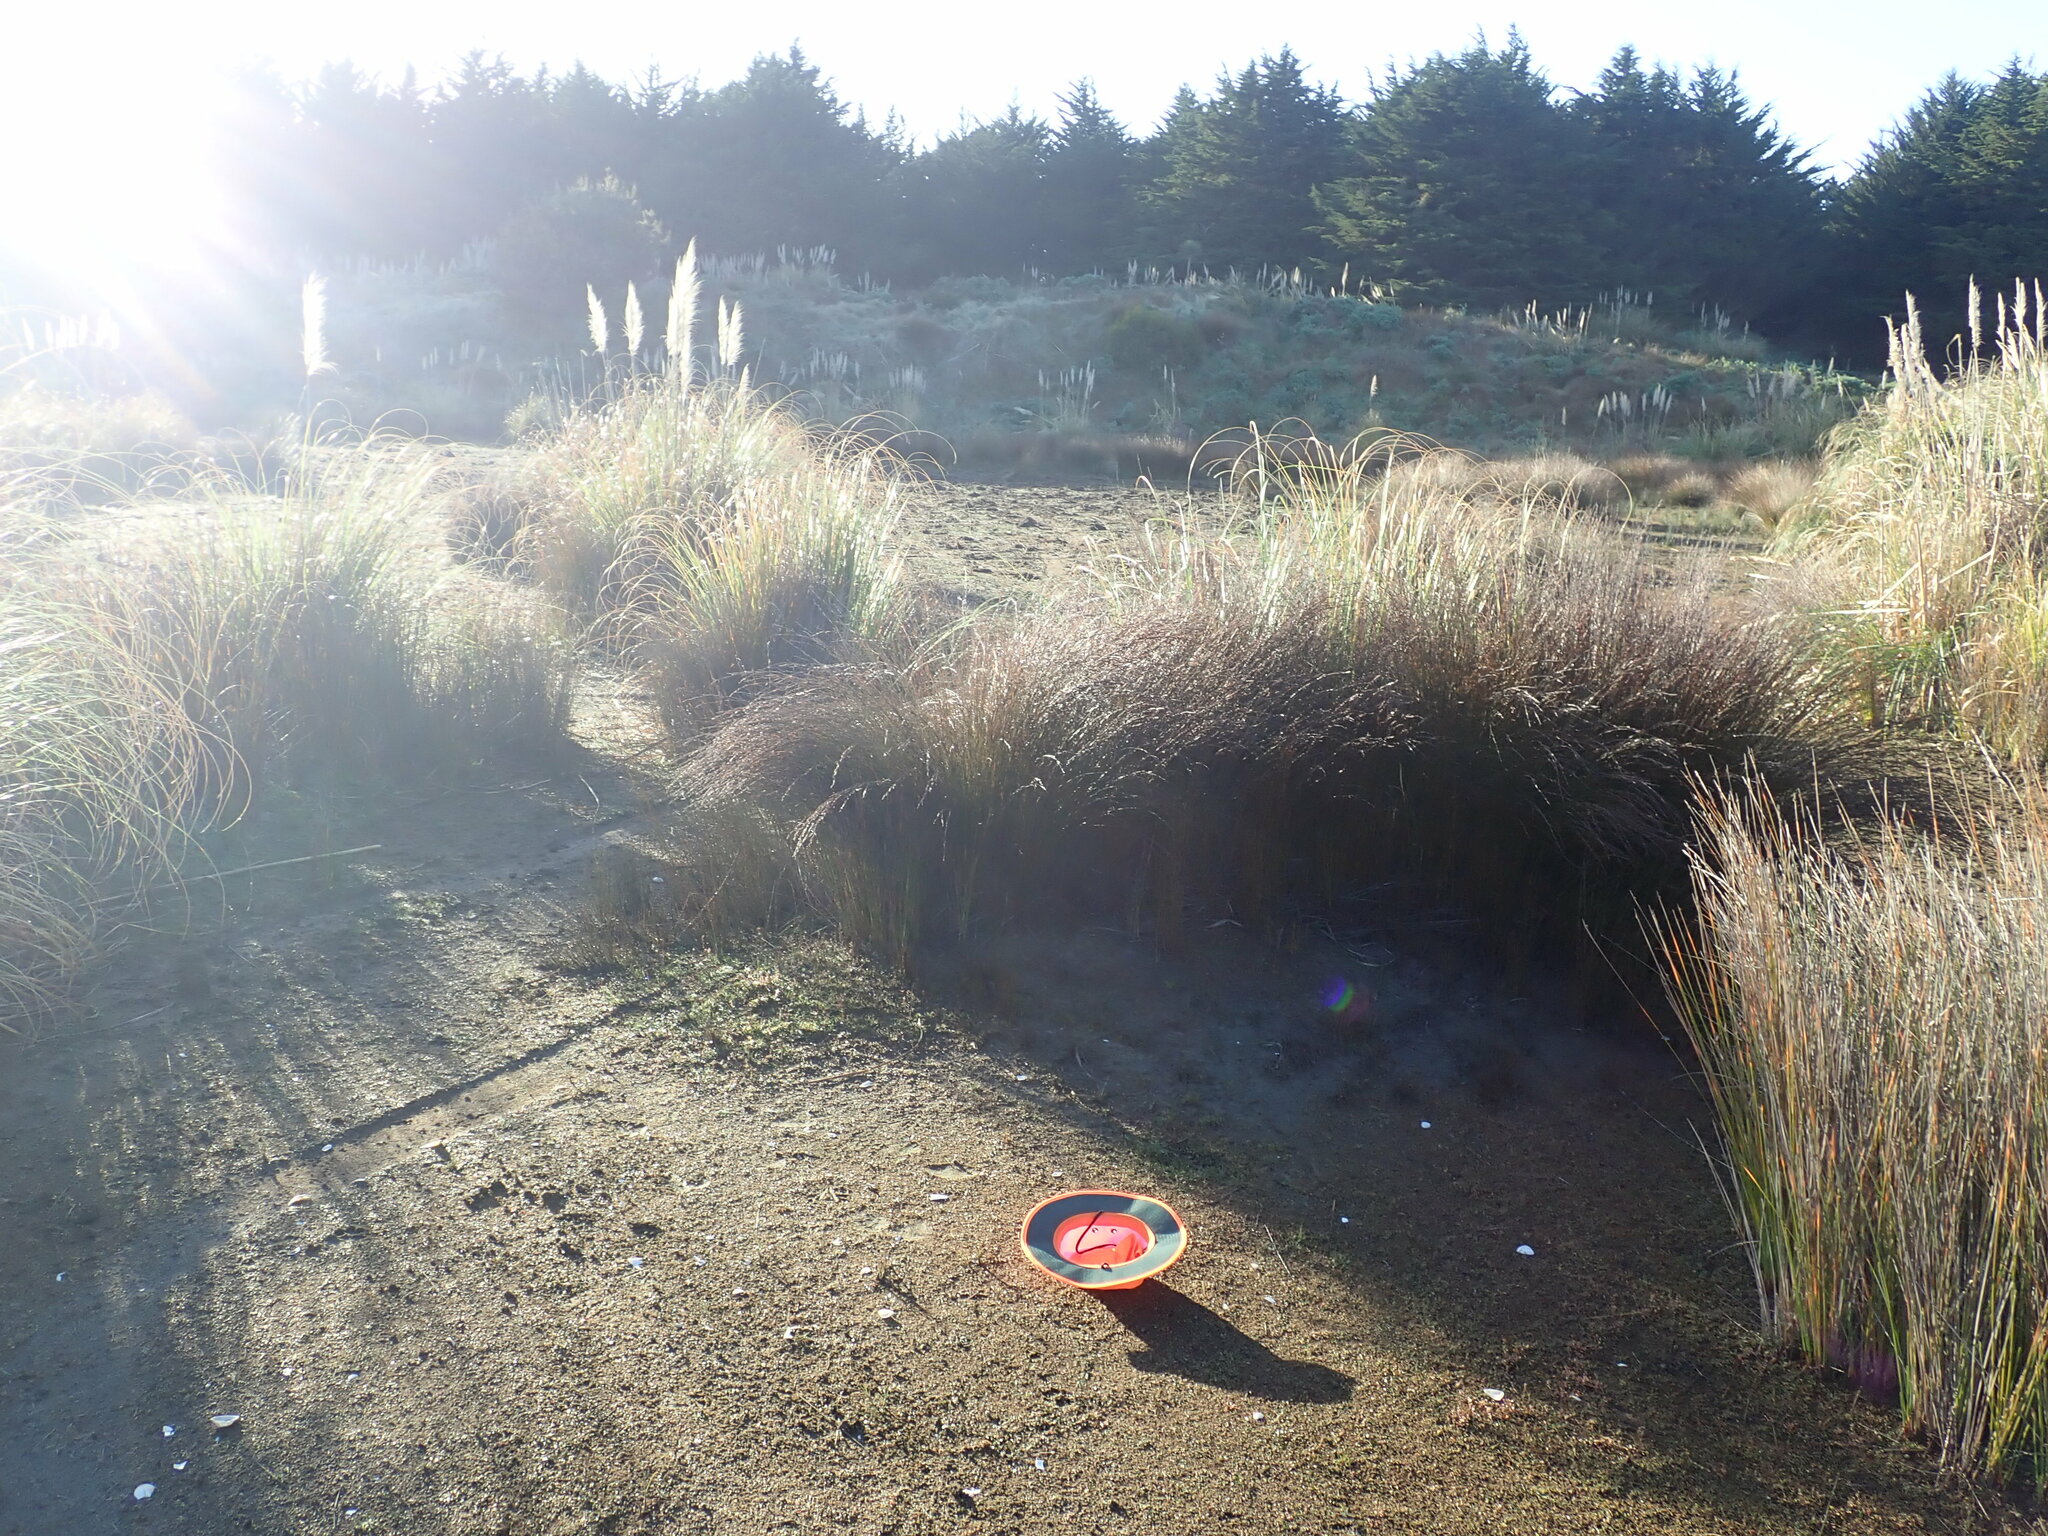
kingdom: Plantae
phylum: Tracheophyta
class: Magnoliopsida
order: Ranunculales
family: Ranunculaceae
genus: Ranunculus
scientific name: Ranunculus acaulis
